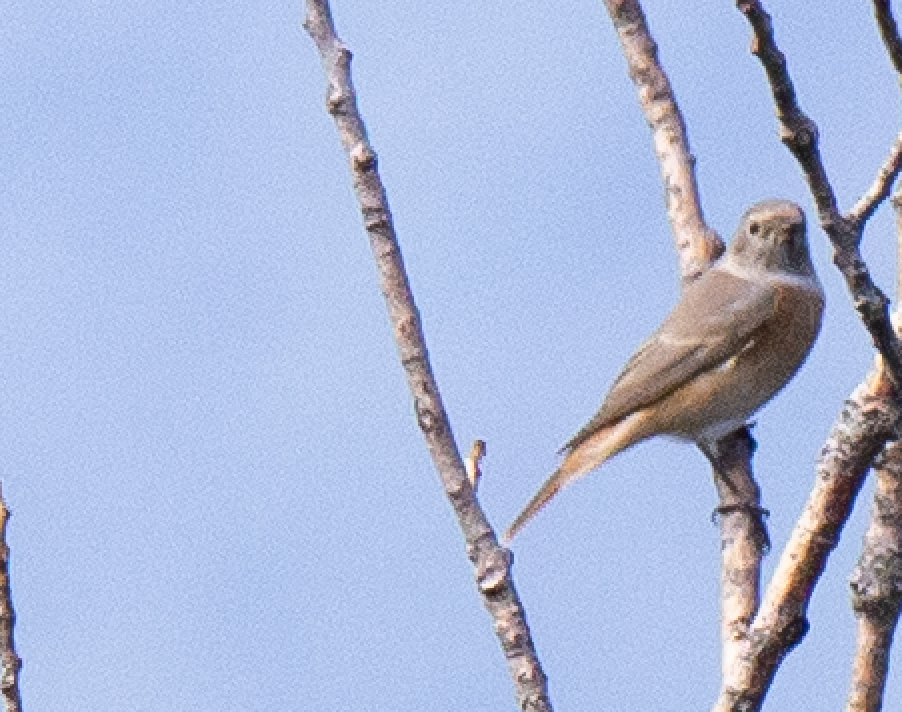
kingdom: Animalia
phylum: Chordata
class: Aves
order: Passeriformes
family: Muscicapidae
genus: Phoenicurus
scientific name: Phoenicurus phoenicurus
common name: Common redstart
